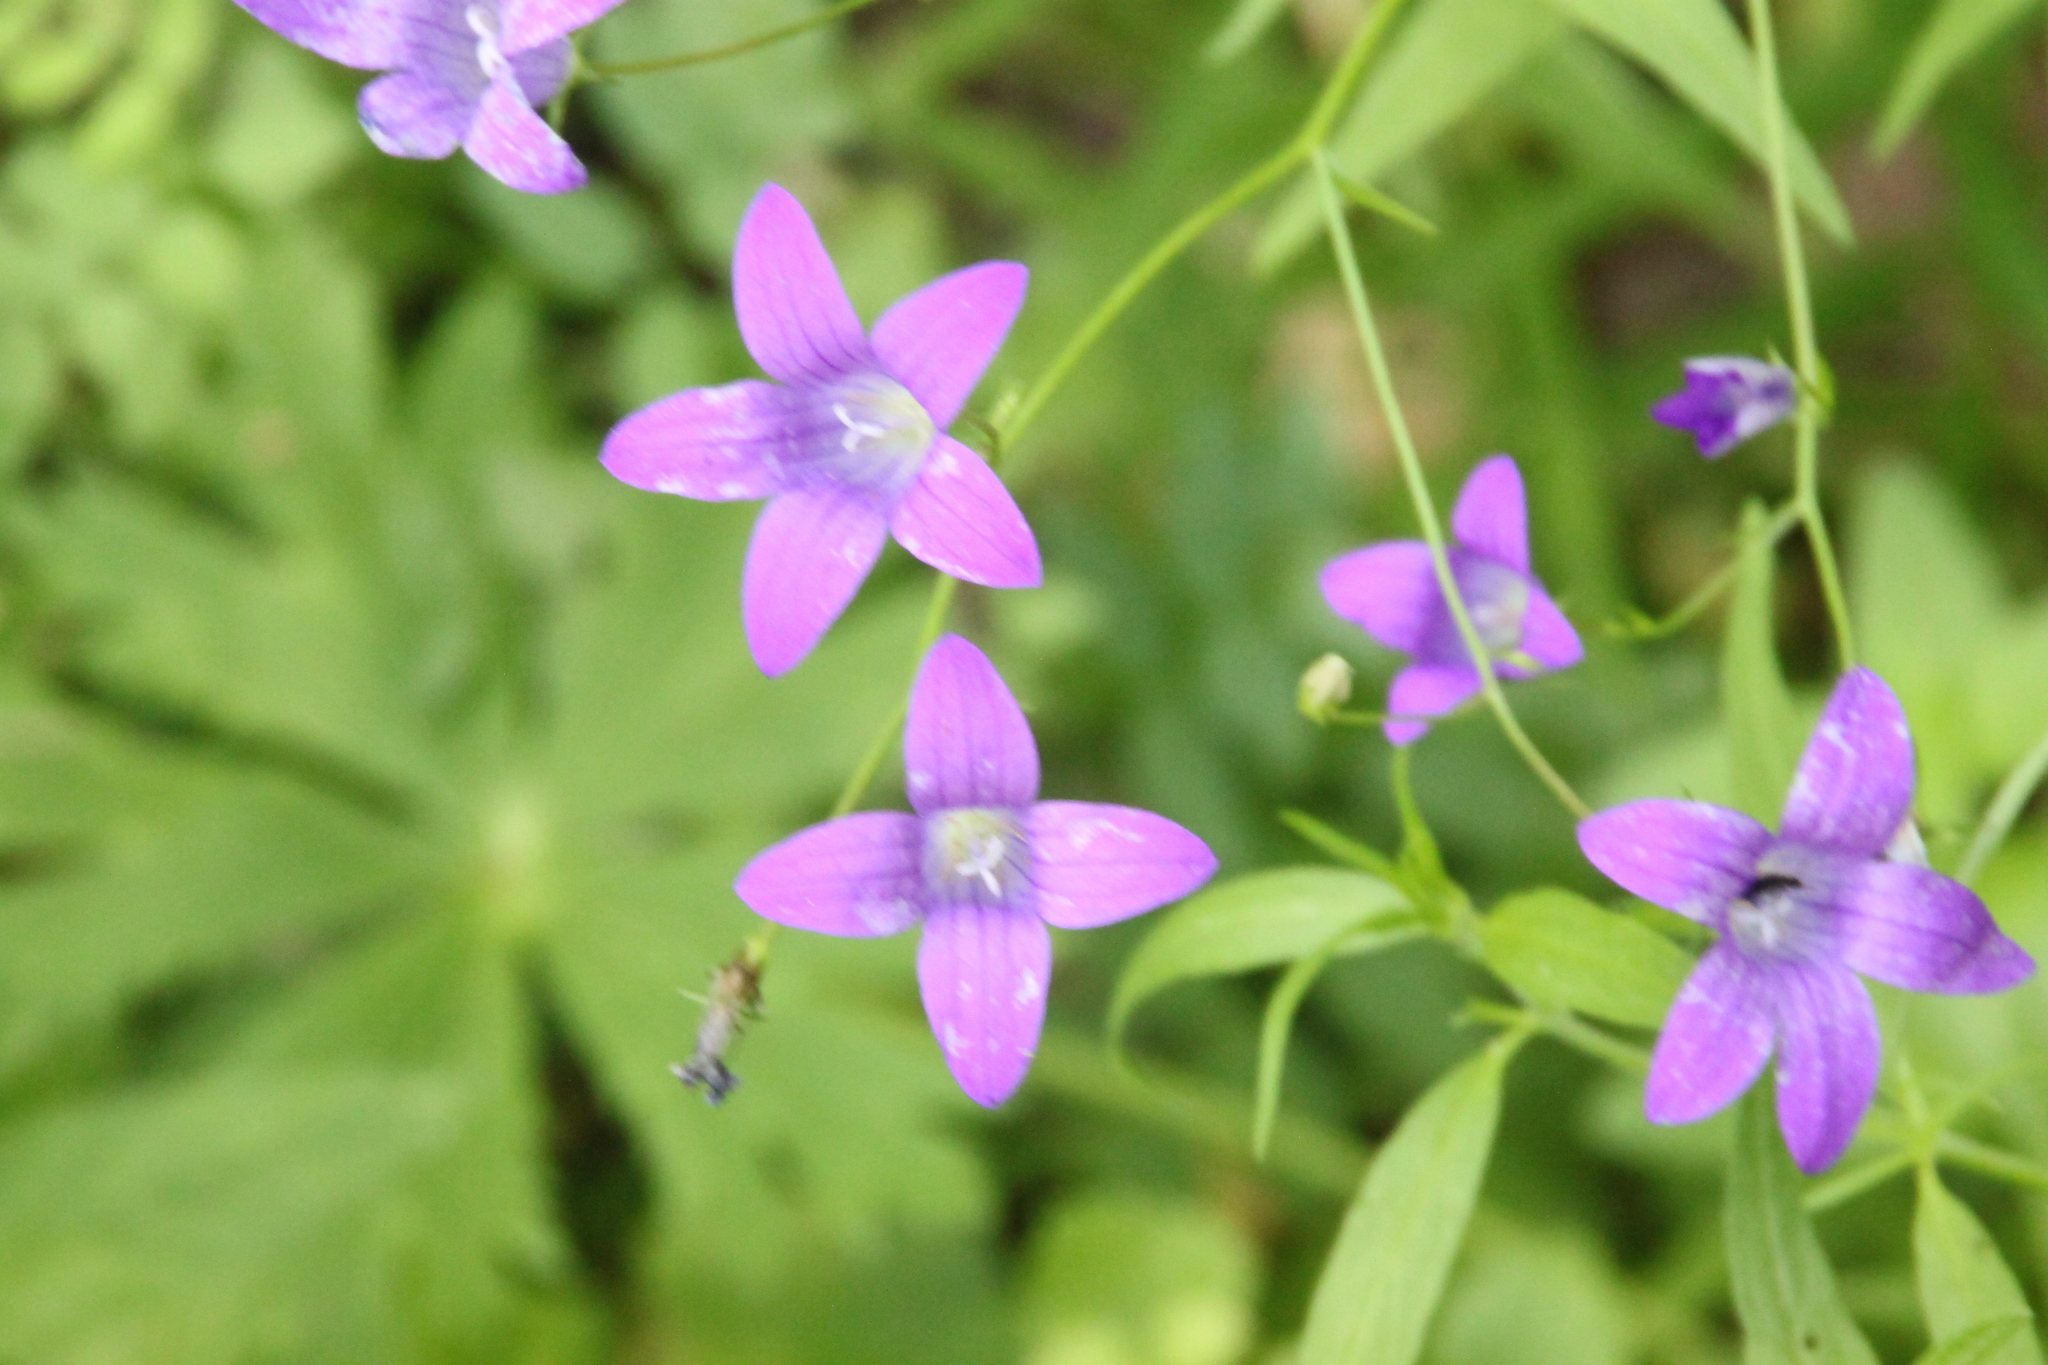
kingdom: Plantae
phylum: Tracheophyta
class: Magnoliopsida
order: Asterales
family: Campanulaceae
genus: Campanula
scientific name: Campanula patula
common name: Spreading bellflower
